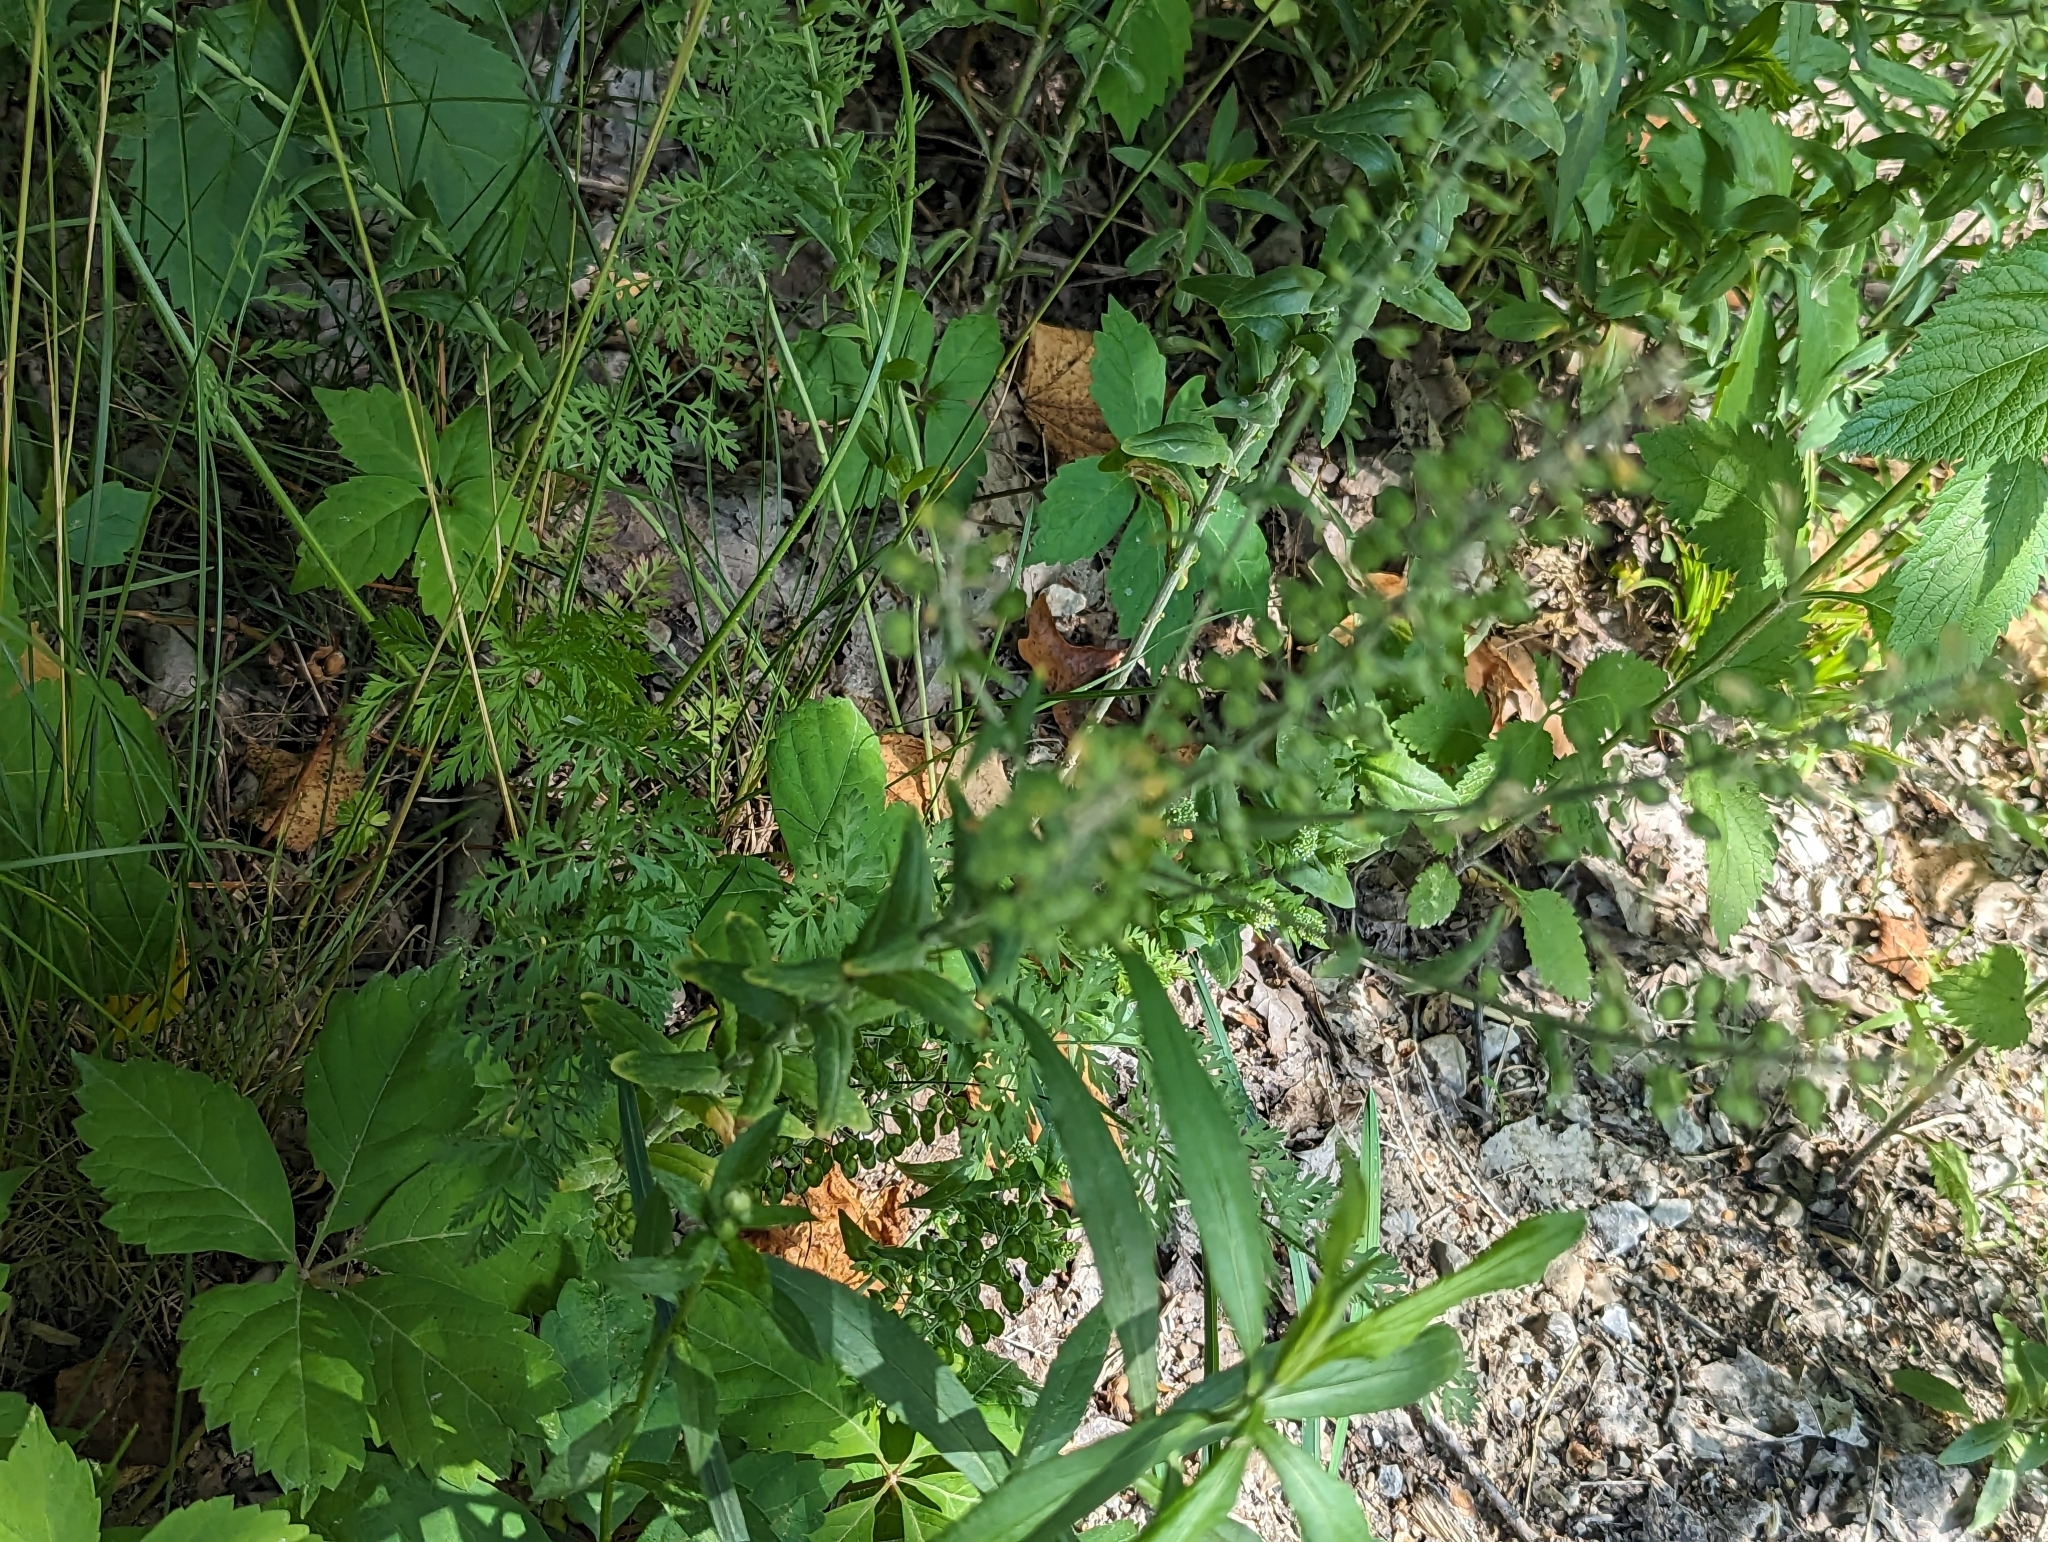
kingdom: Plantae
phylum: Tracheophyta
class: Magnoliopsida
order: Brassicales
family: Brassicaceae
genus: Lepidium
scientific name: Lepidium campestre
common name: Field pepperwort
